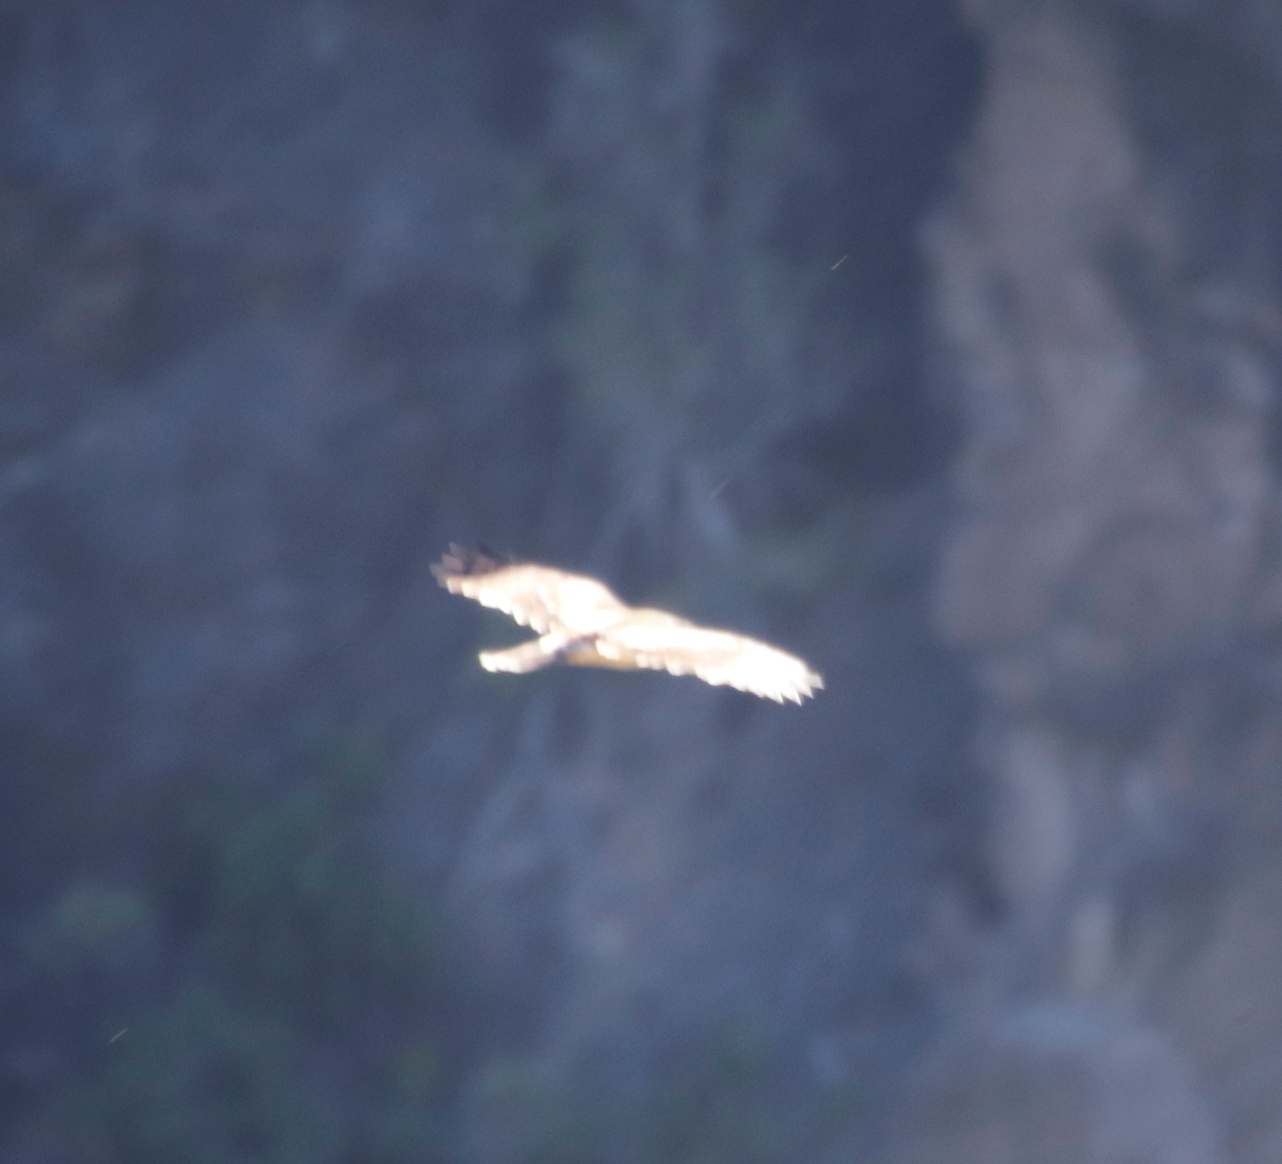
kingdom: Animalia
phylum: Chordata
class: Aves
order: Falconiformes
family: Falconidae
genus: Falco
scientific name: Falco rupicolus
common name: Rock kestrel
